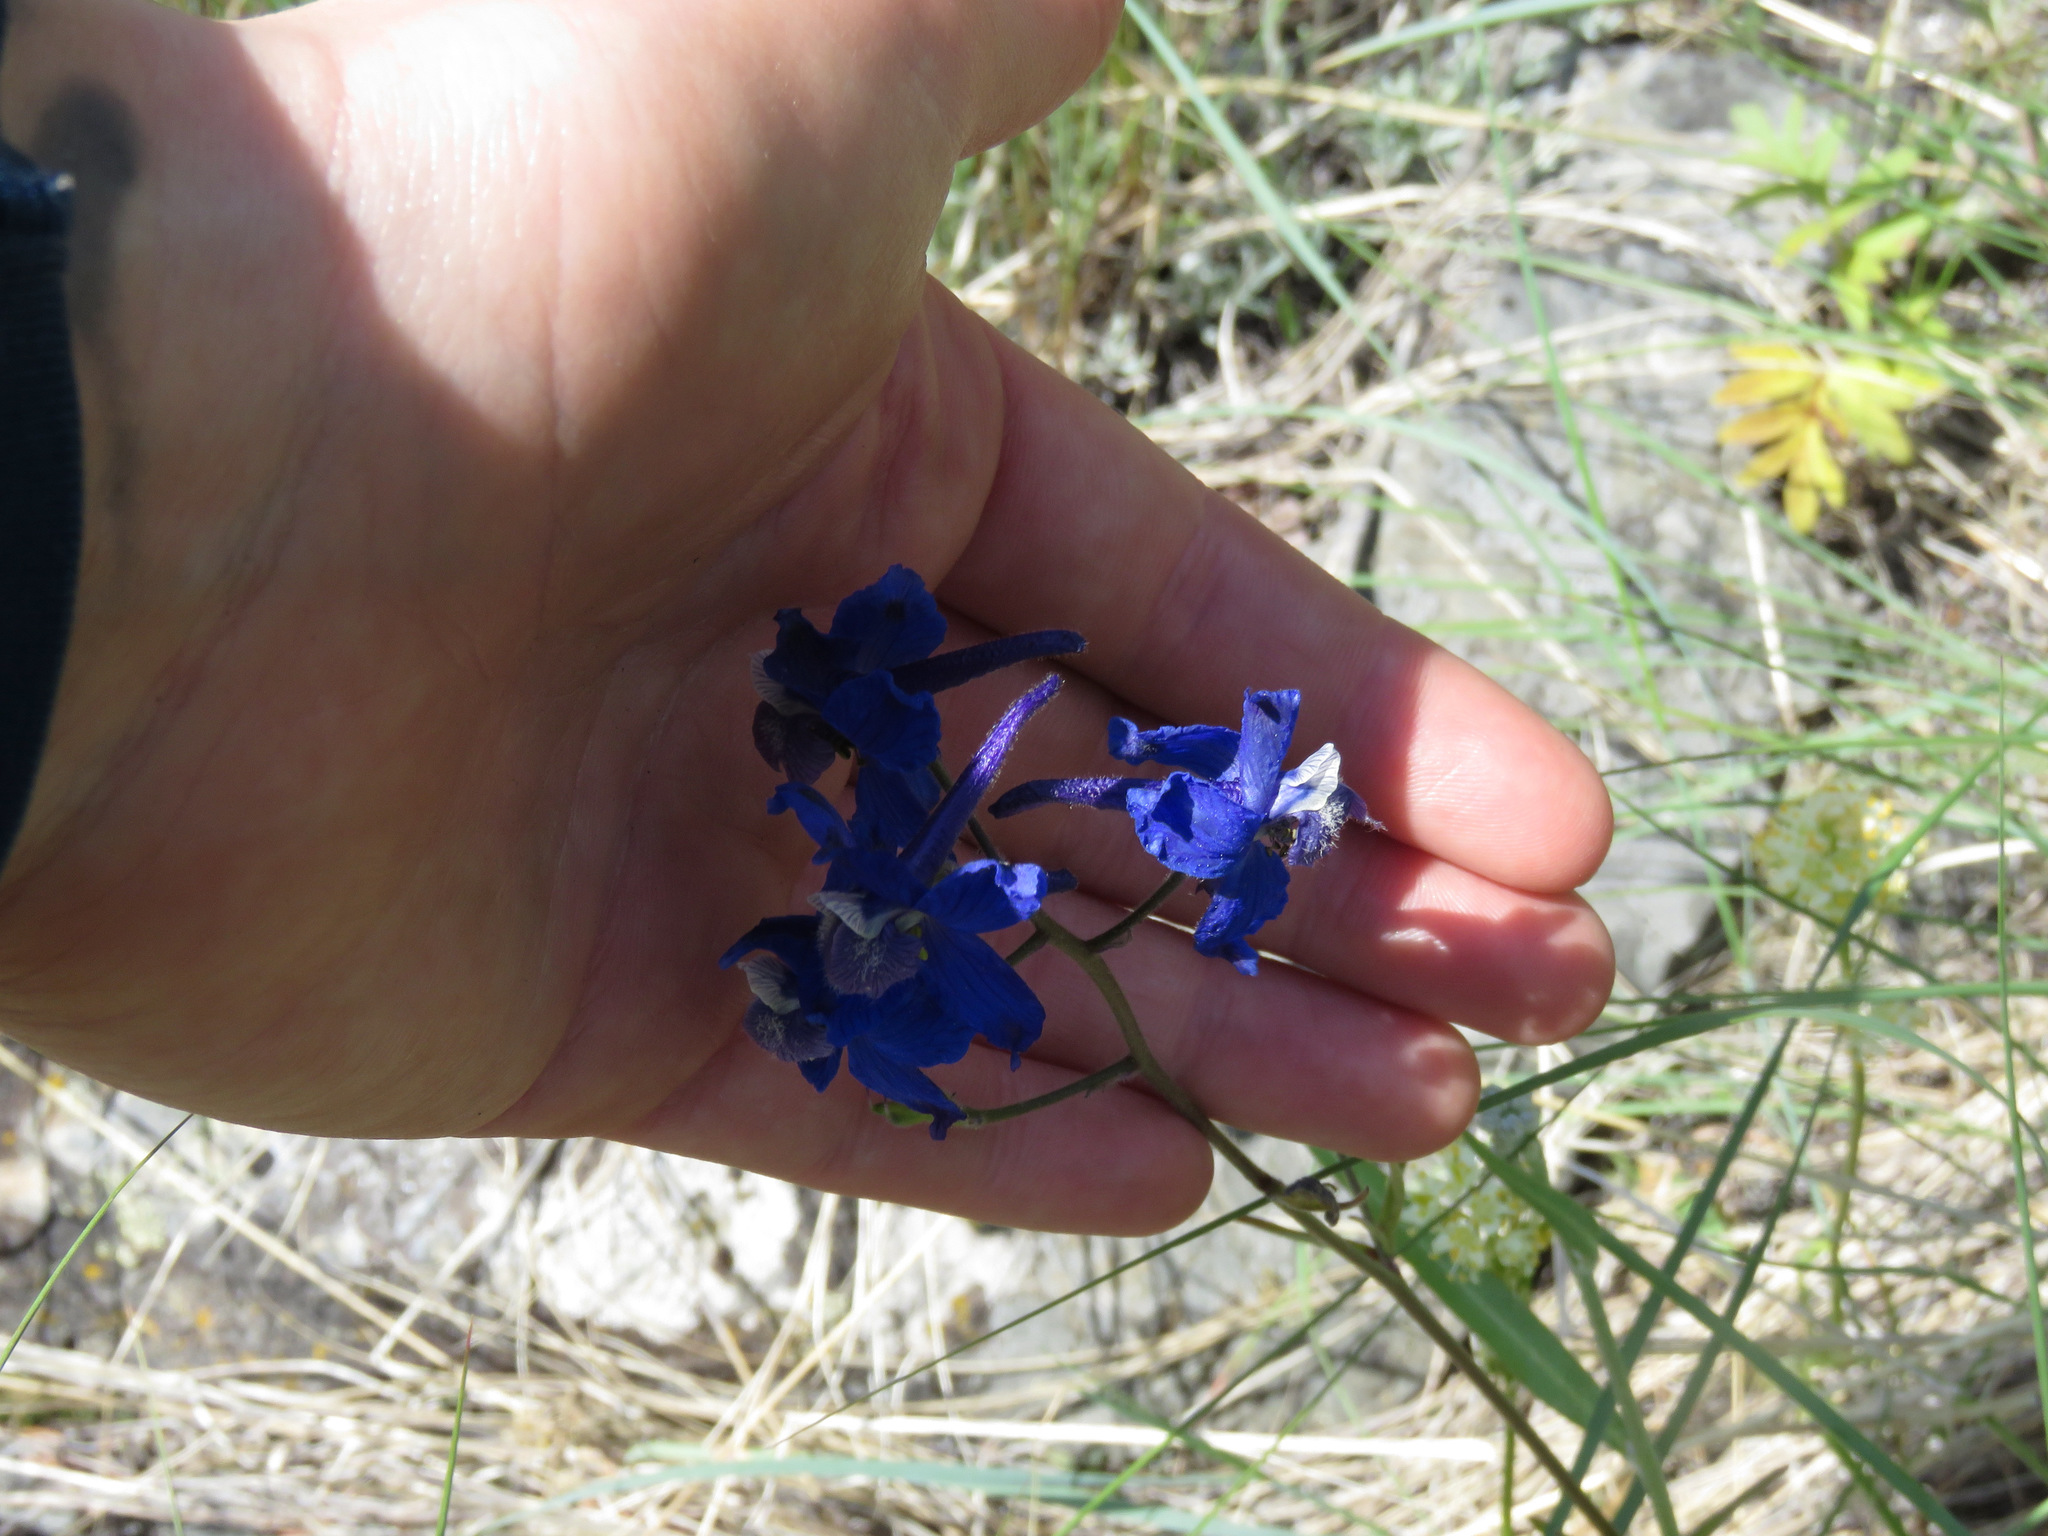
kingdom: Plantae
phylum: Tracheophyta
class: Magnoliopsida
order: Ranunculales
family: Ranunculaceae
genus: Delphinium
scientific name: Delphinium nuttallianum
